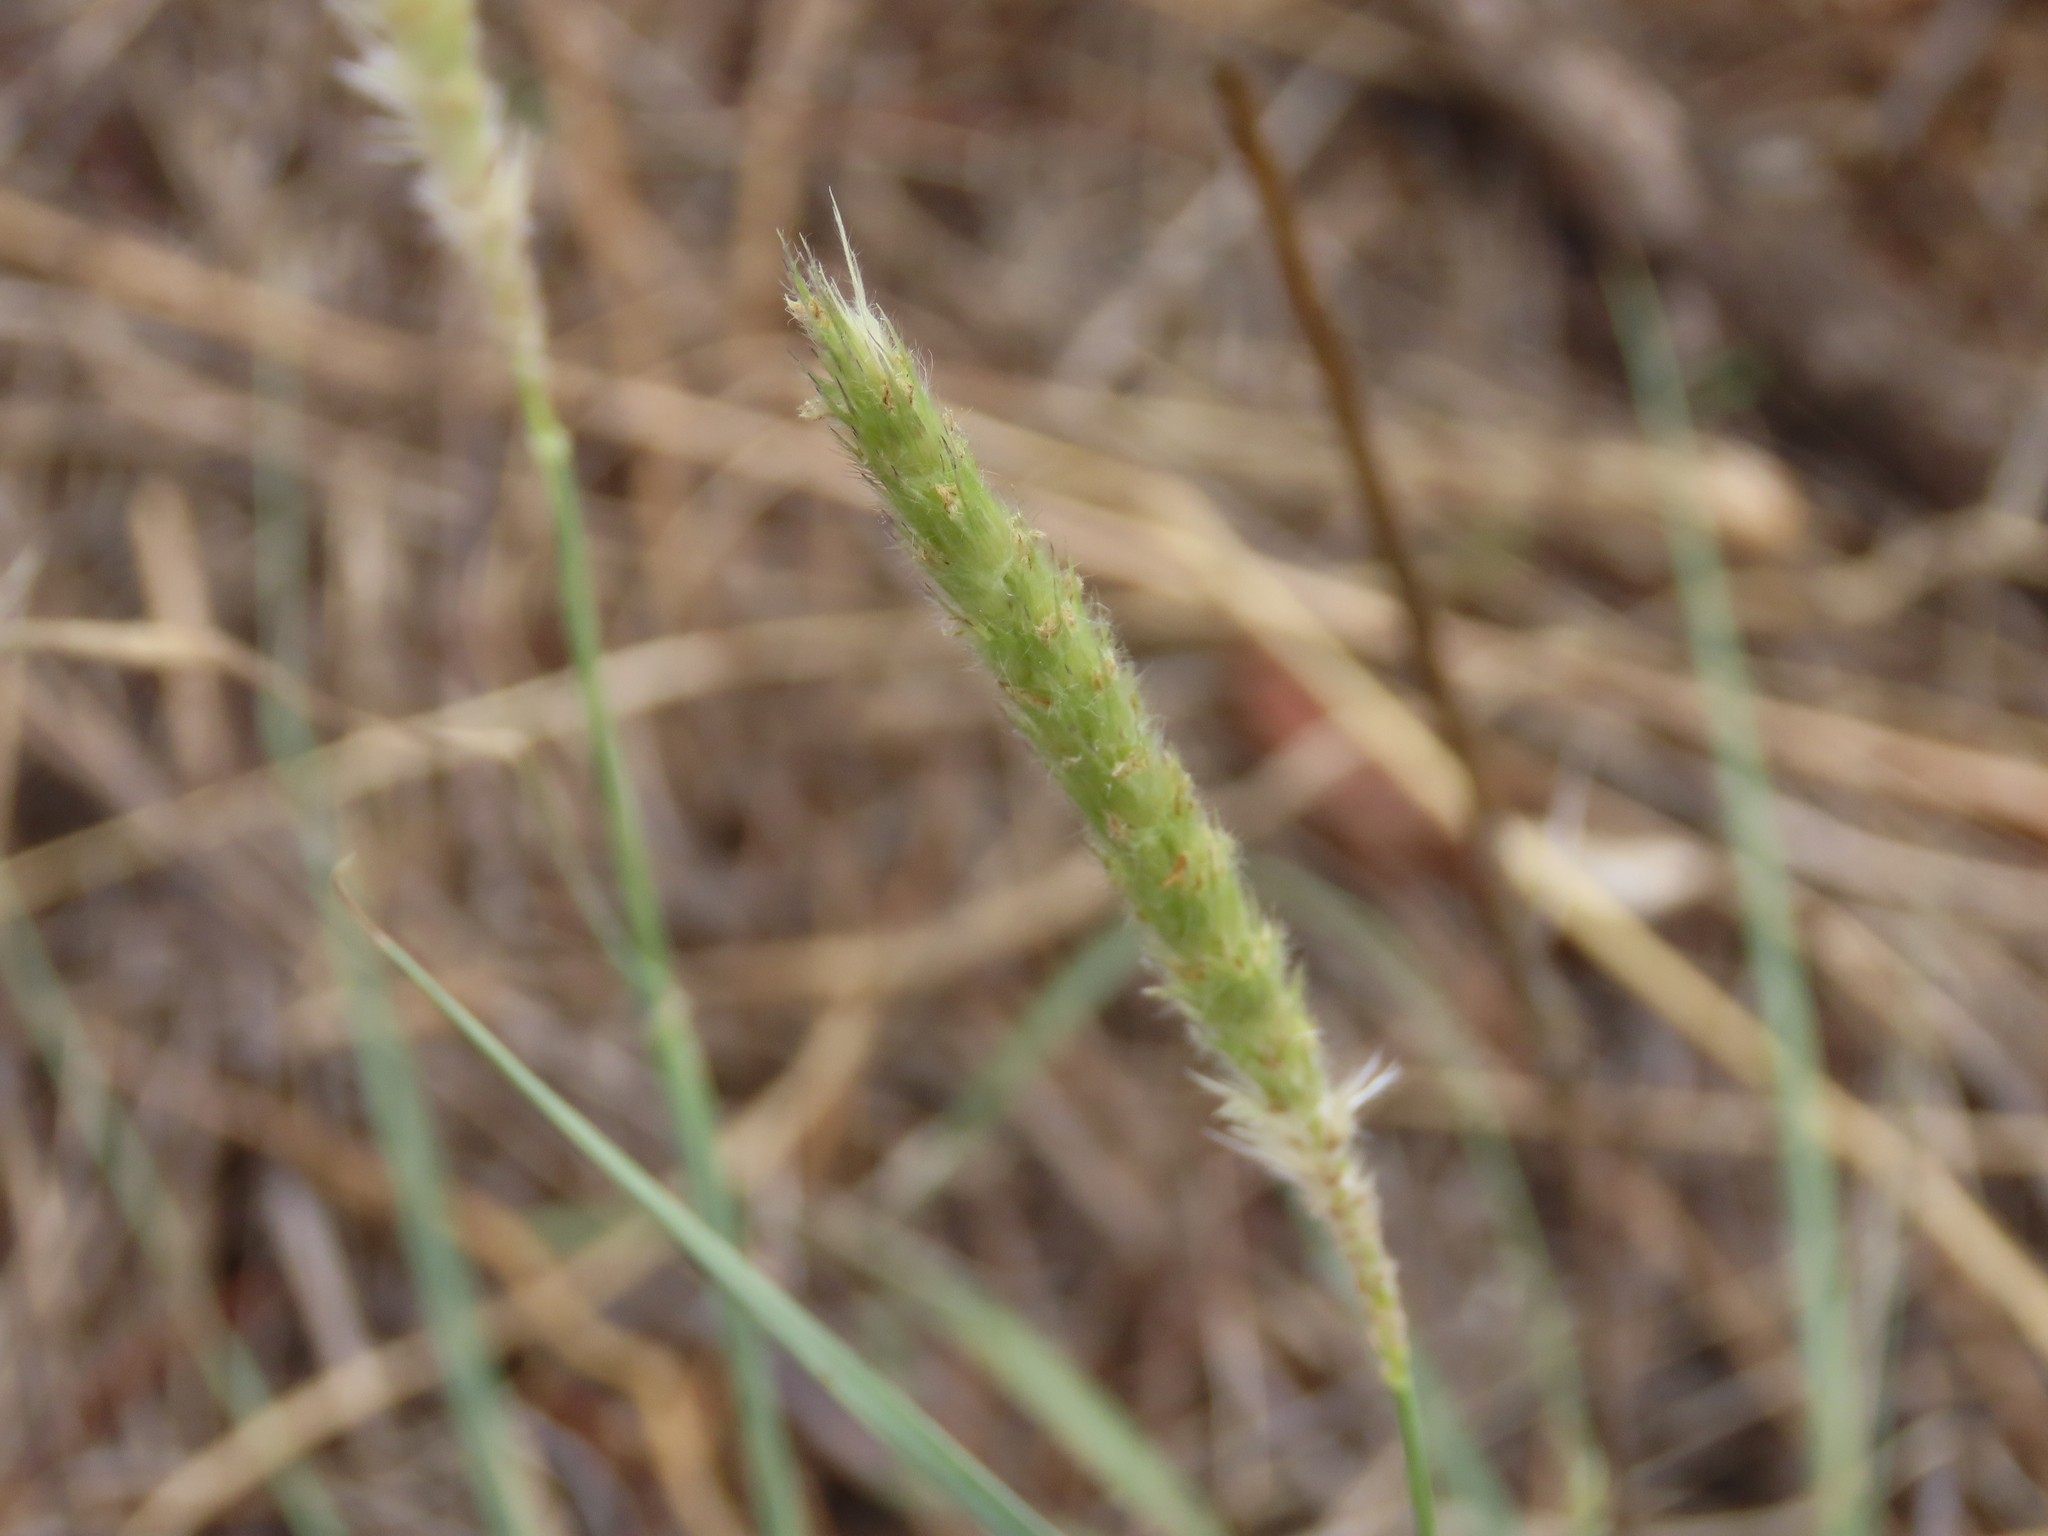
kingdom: Plantae
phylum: Tracheophyta
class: Liliopsida
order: Poales
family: Poaceae
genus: Anthephora
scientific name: Anthephora pubescens
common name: Wool grass
